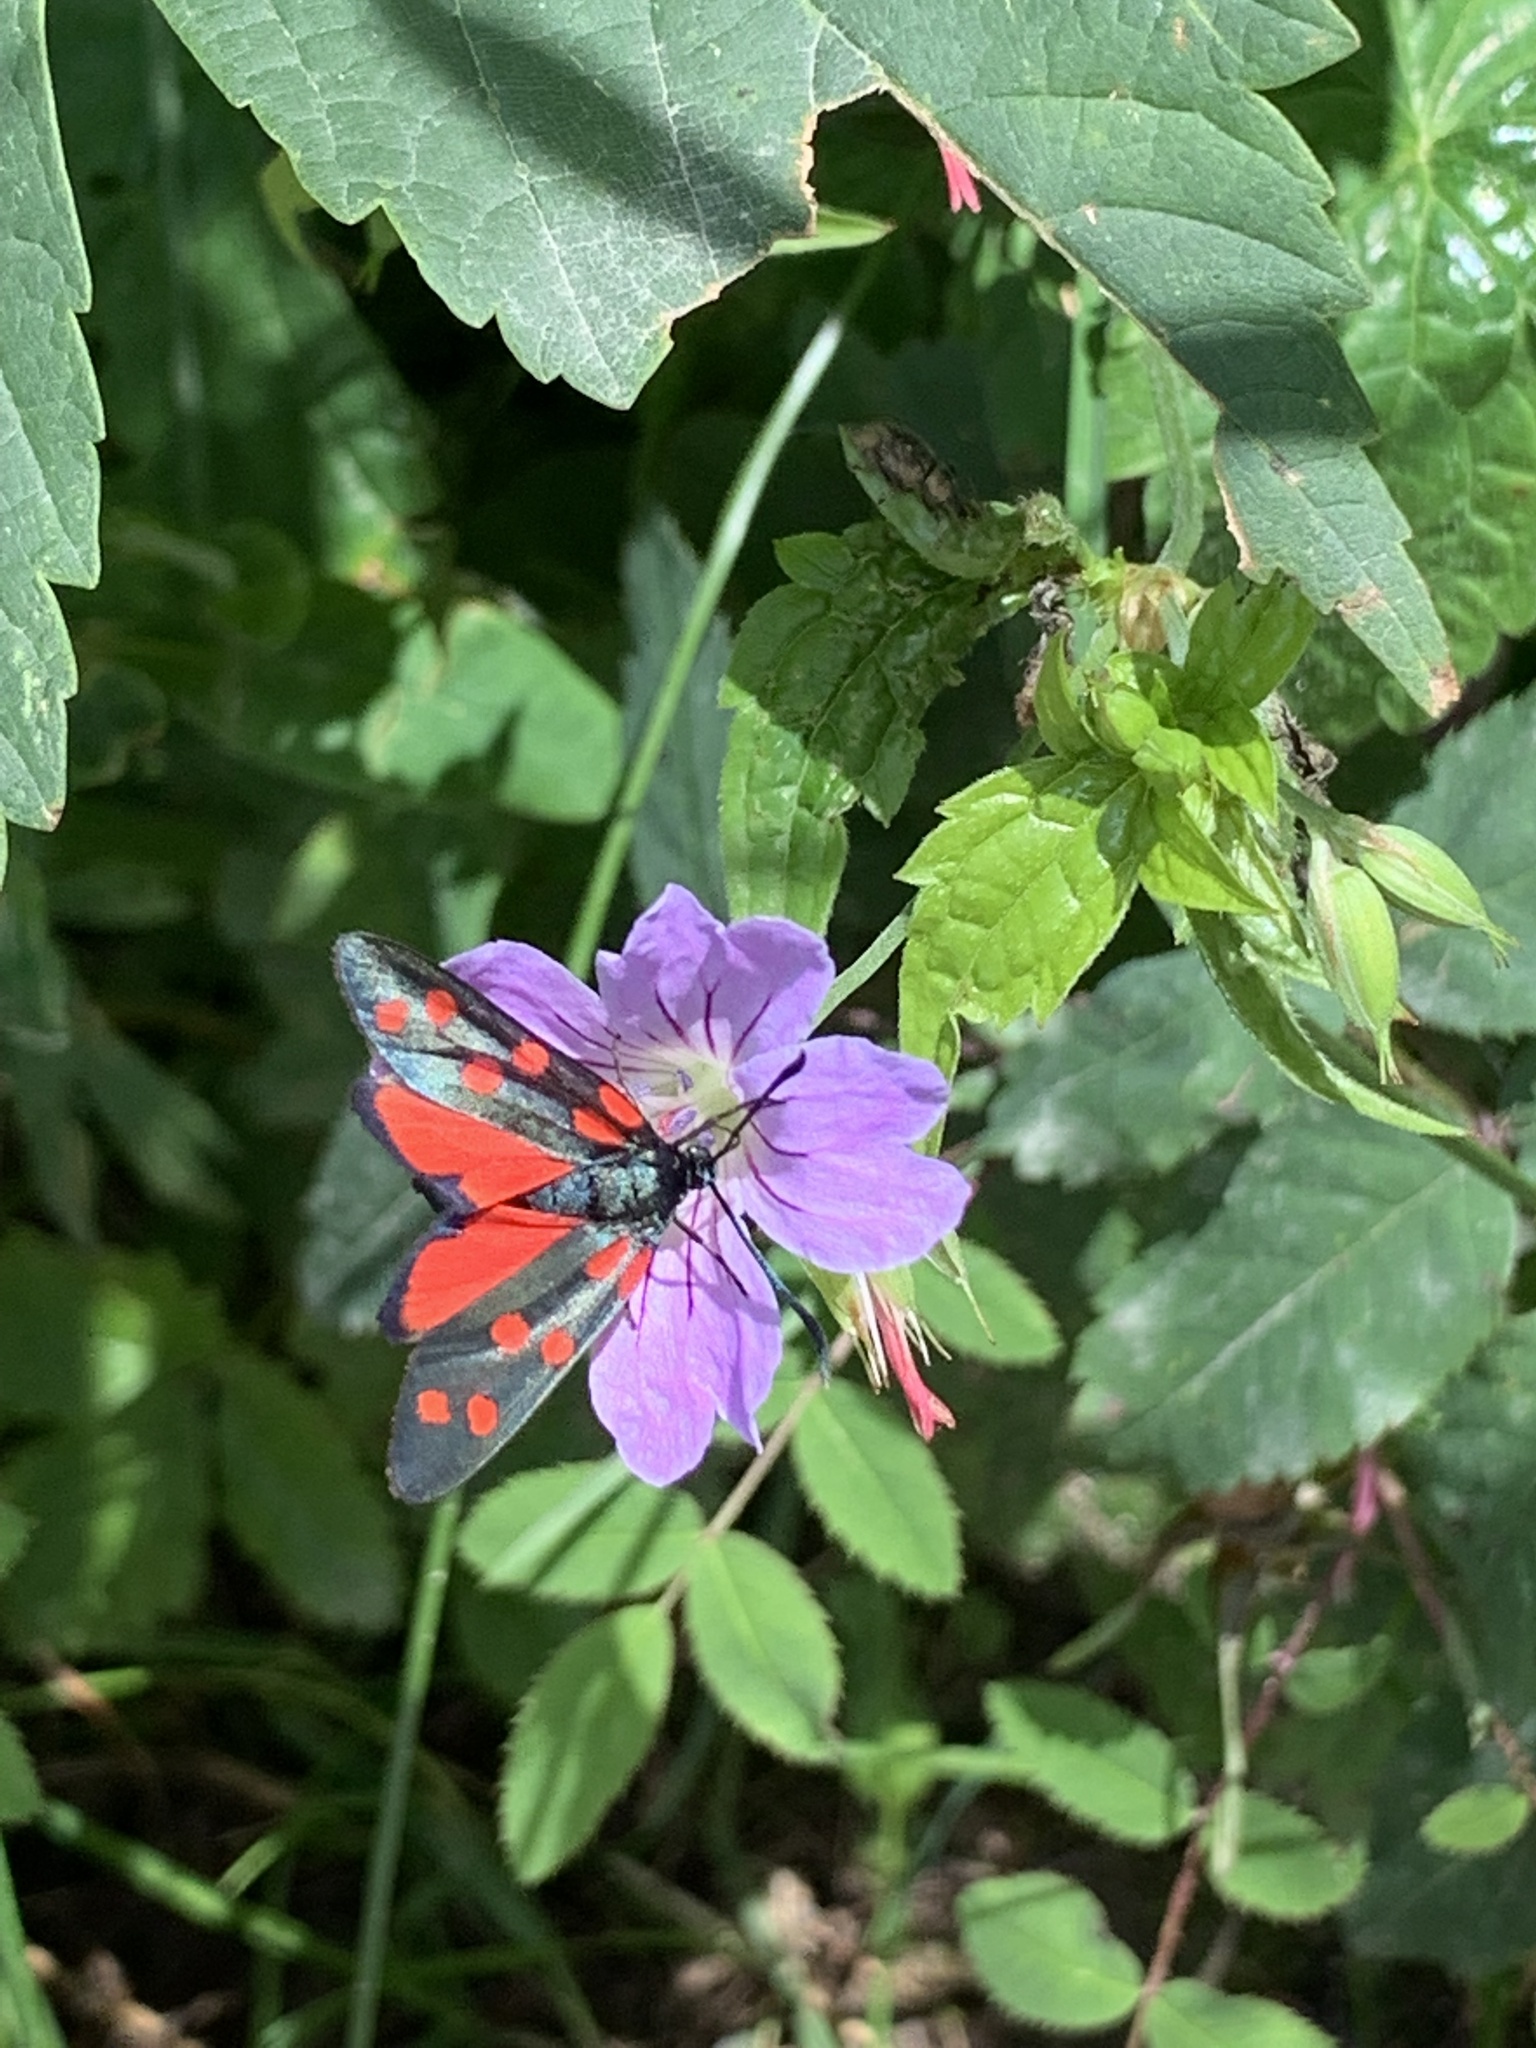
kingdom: Animalia
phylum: Arthropoda
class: Insecta
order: Lepidoptera
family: Zygaenidae
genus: Zygaena
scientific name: Zygaena filipendulae
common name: Six-spot burnet
